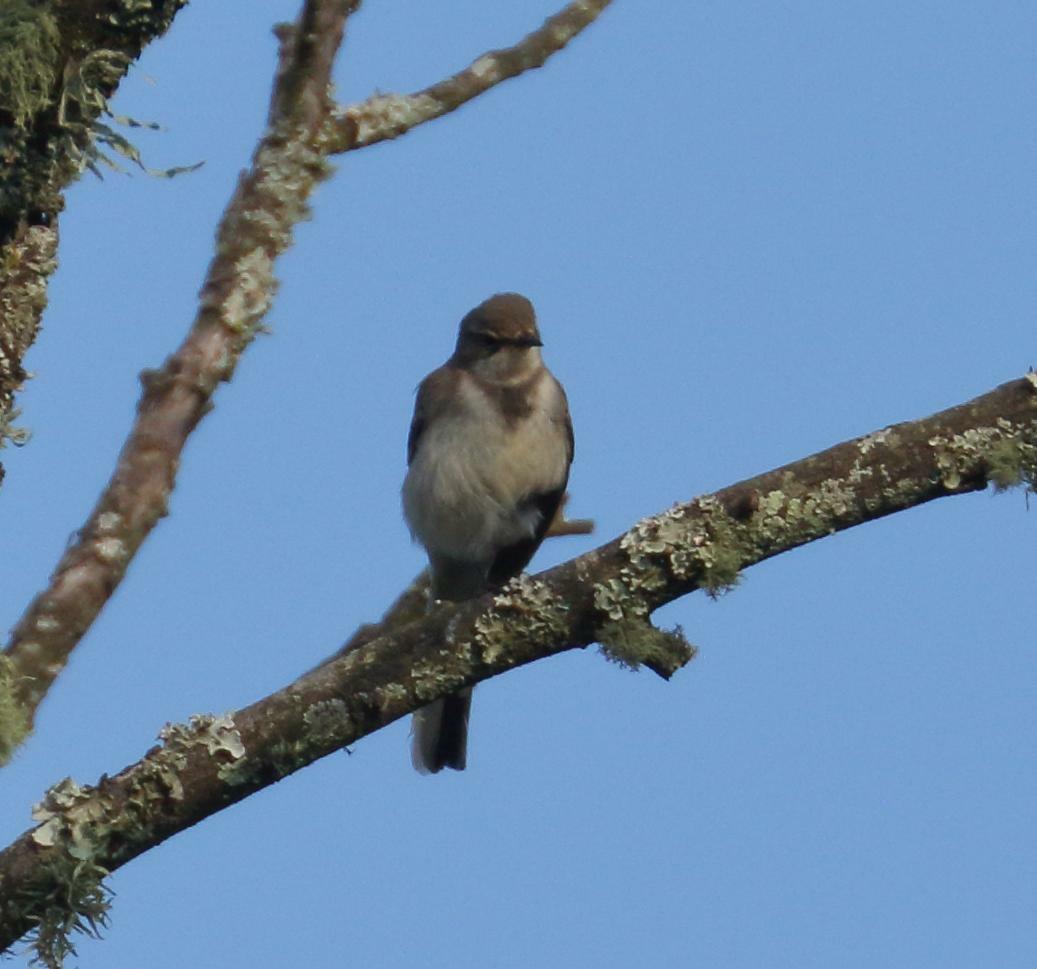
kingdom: Animalia
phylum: Chordata
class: Aves
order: Passeriformes
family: Motacillidae
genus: Motacilla
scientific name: Motacilla capensis
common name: Cape wagtail
